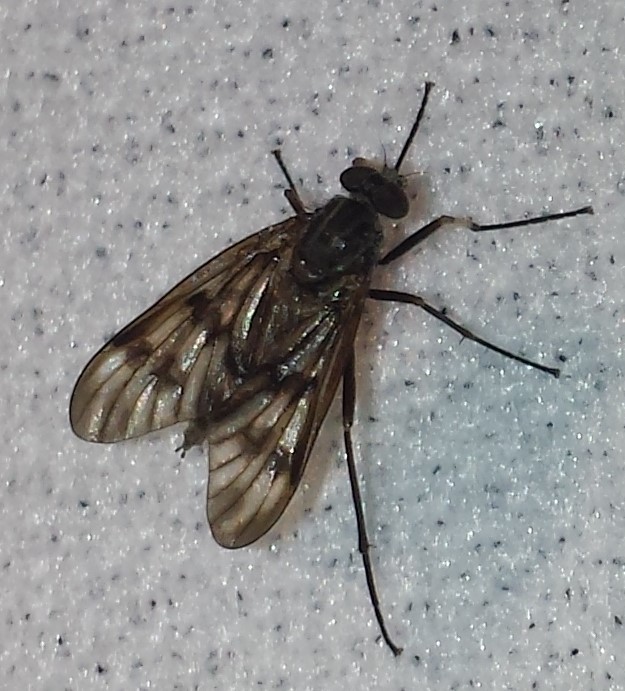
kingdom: Animalia
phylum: Arthropoda
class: Insecta
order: Diptera
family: Rhagionidae
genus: Rhagio
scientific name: Rhagio mystaceus
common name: Common snipe fly
